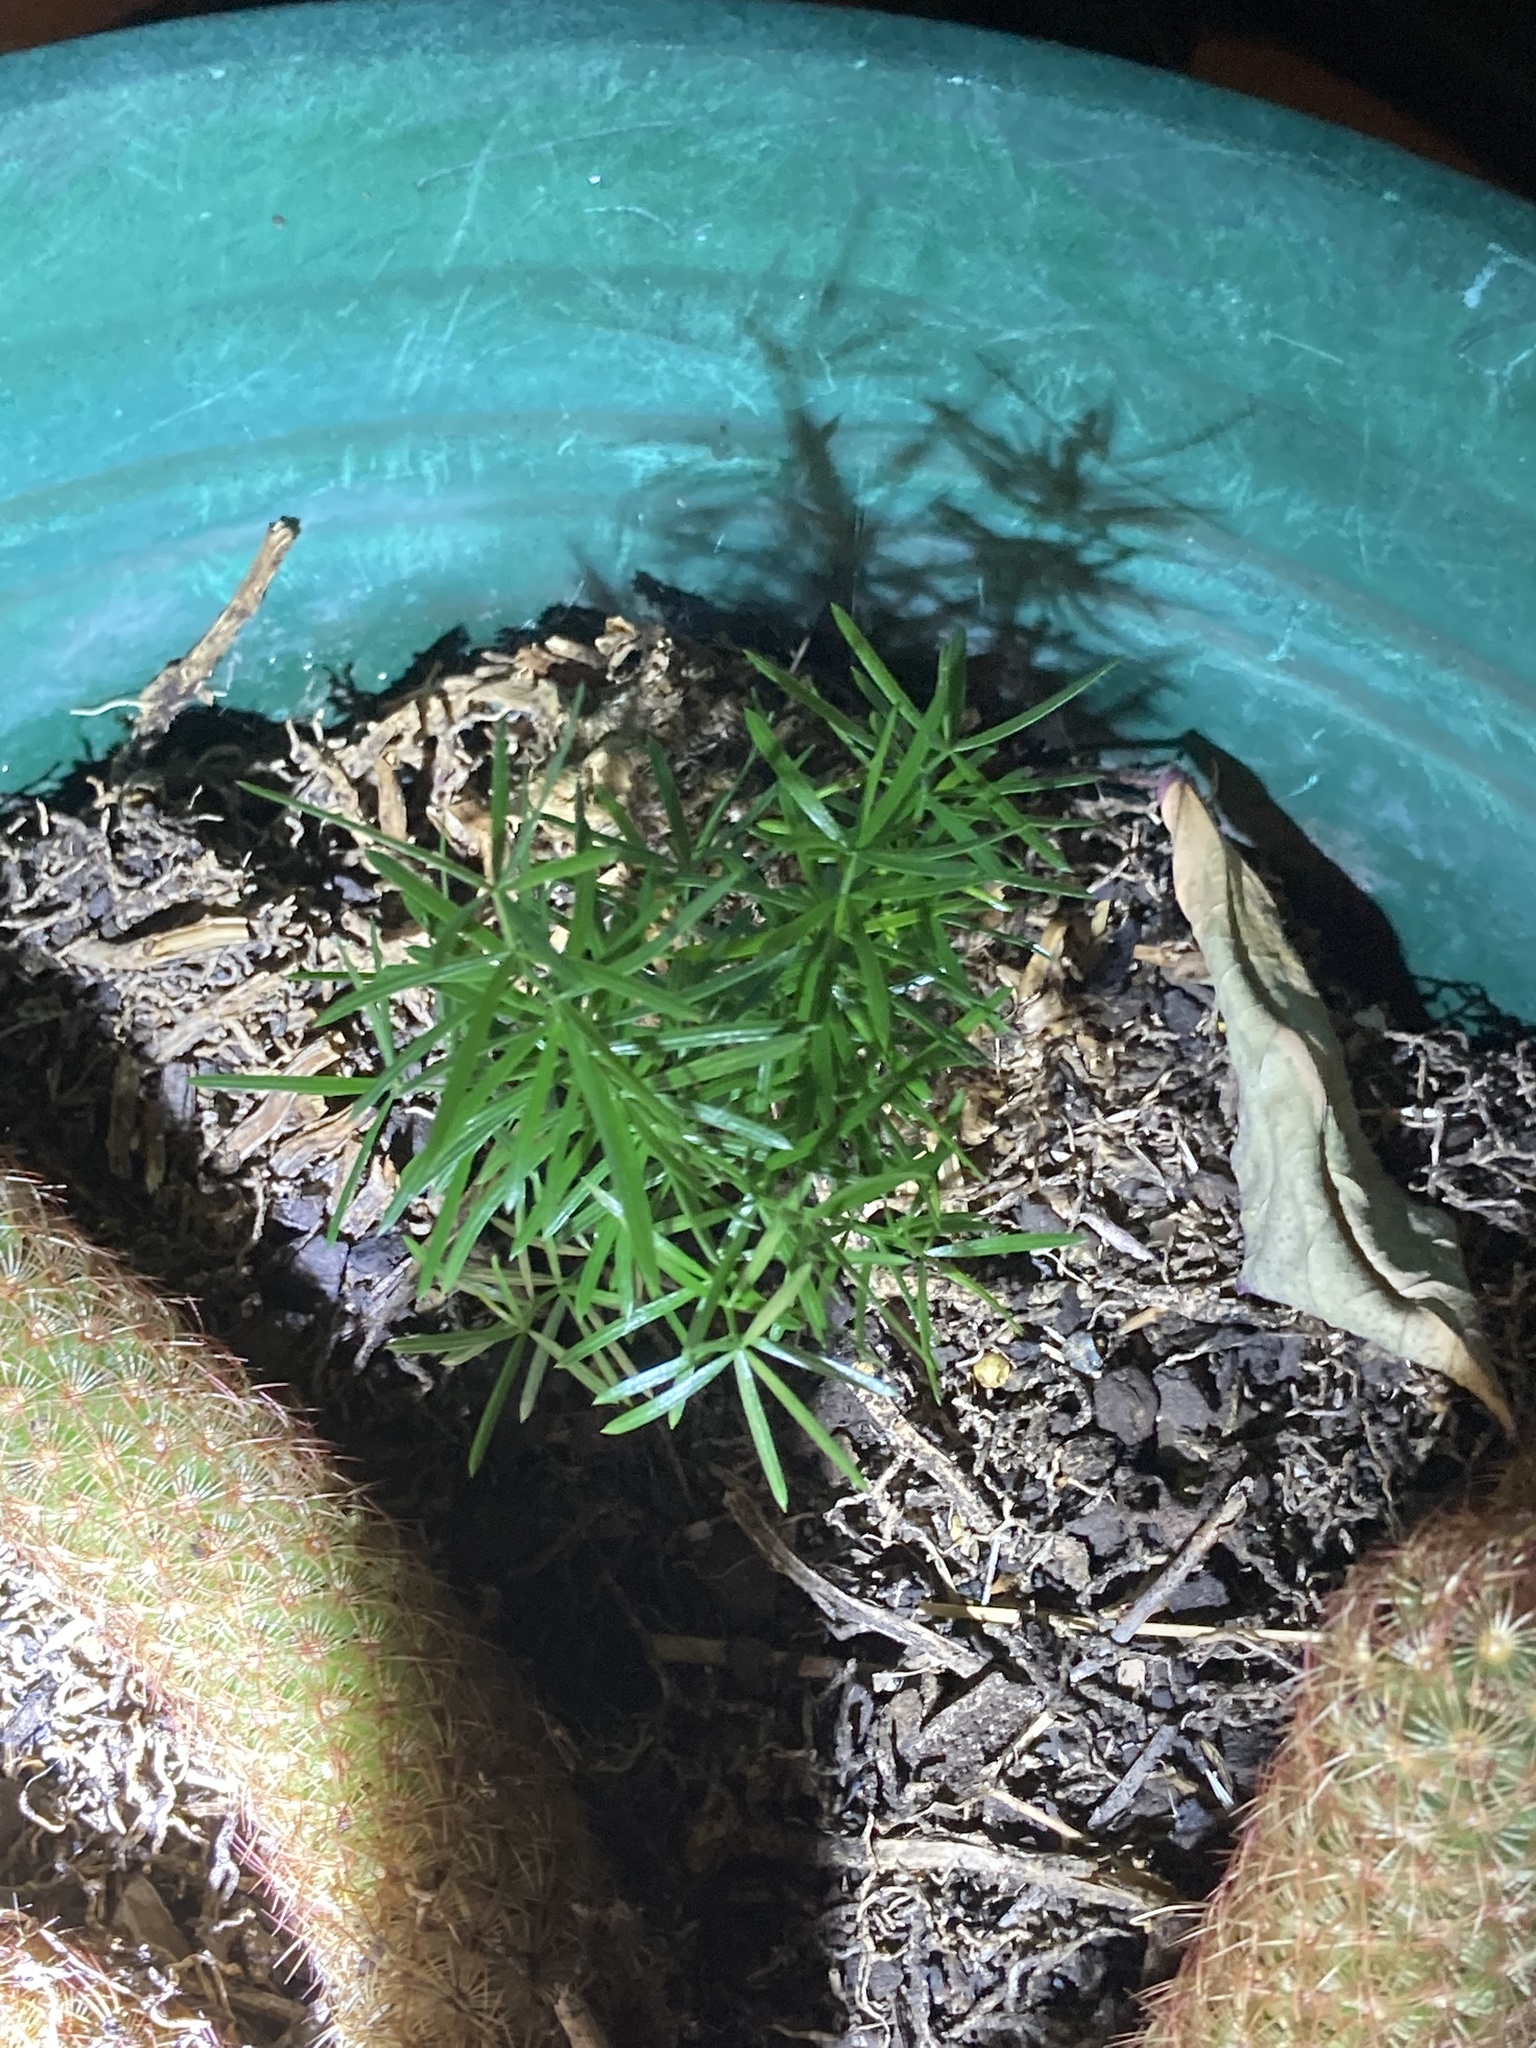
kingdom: Plantae
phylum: Tracheophyta
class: Liliopsida
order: Asparagales
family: Asparagaceae
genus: Asparagus
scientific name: Asparagus aethiopicus
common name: Sprenger's asparagus fern
